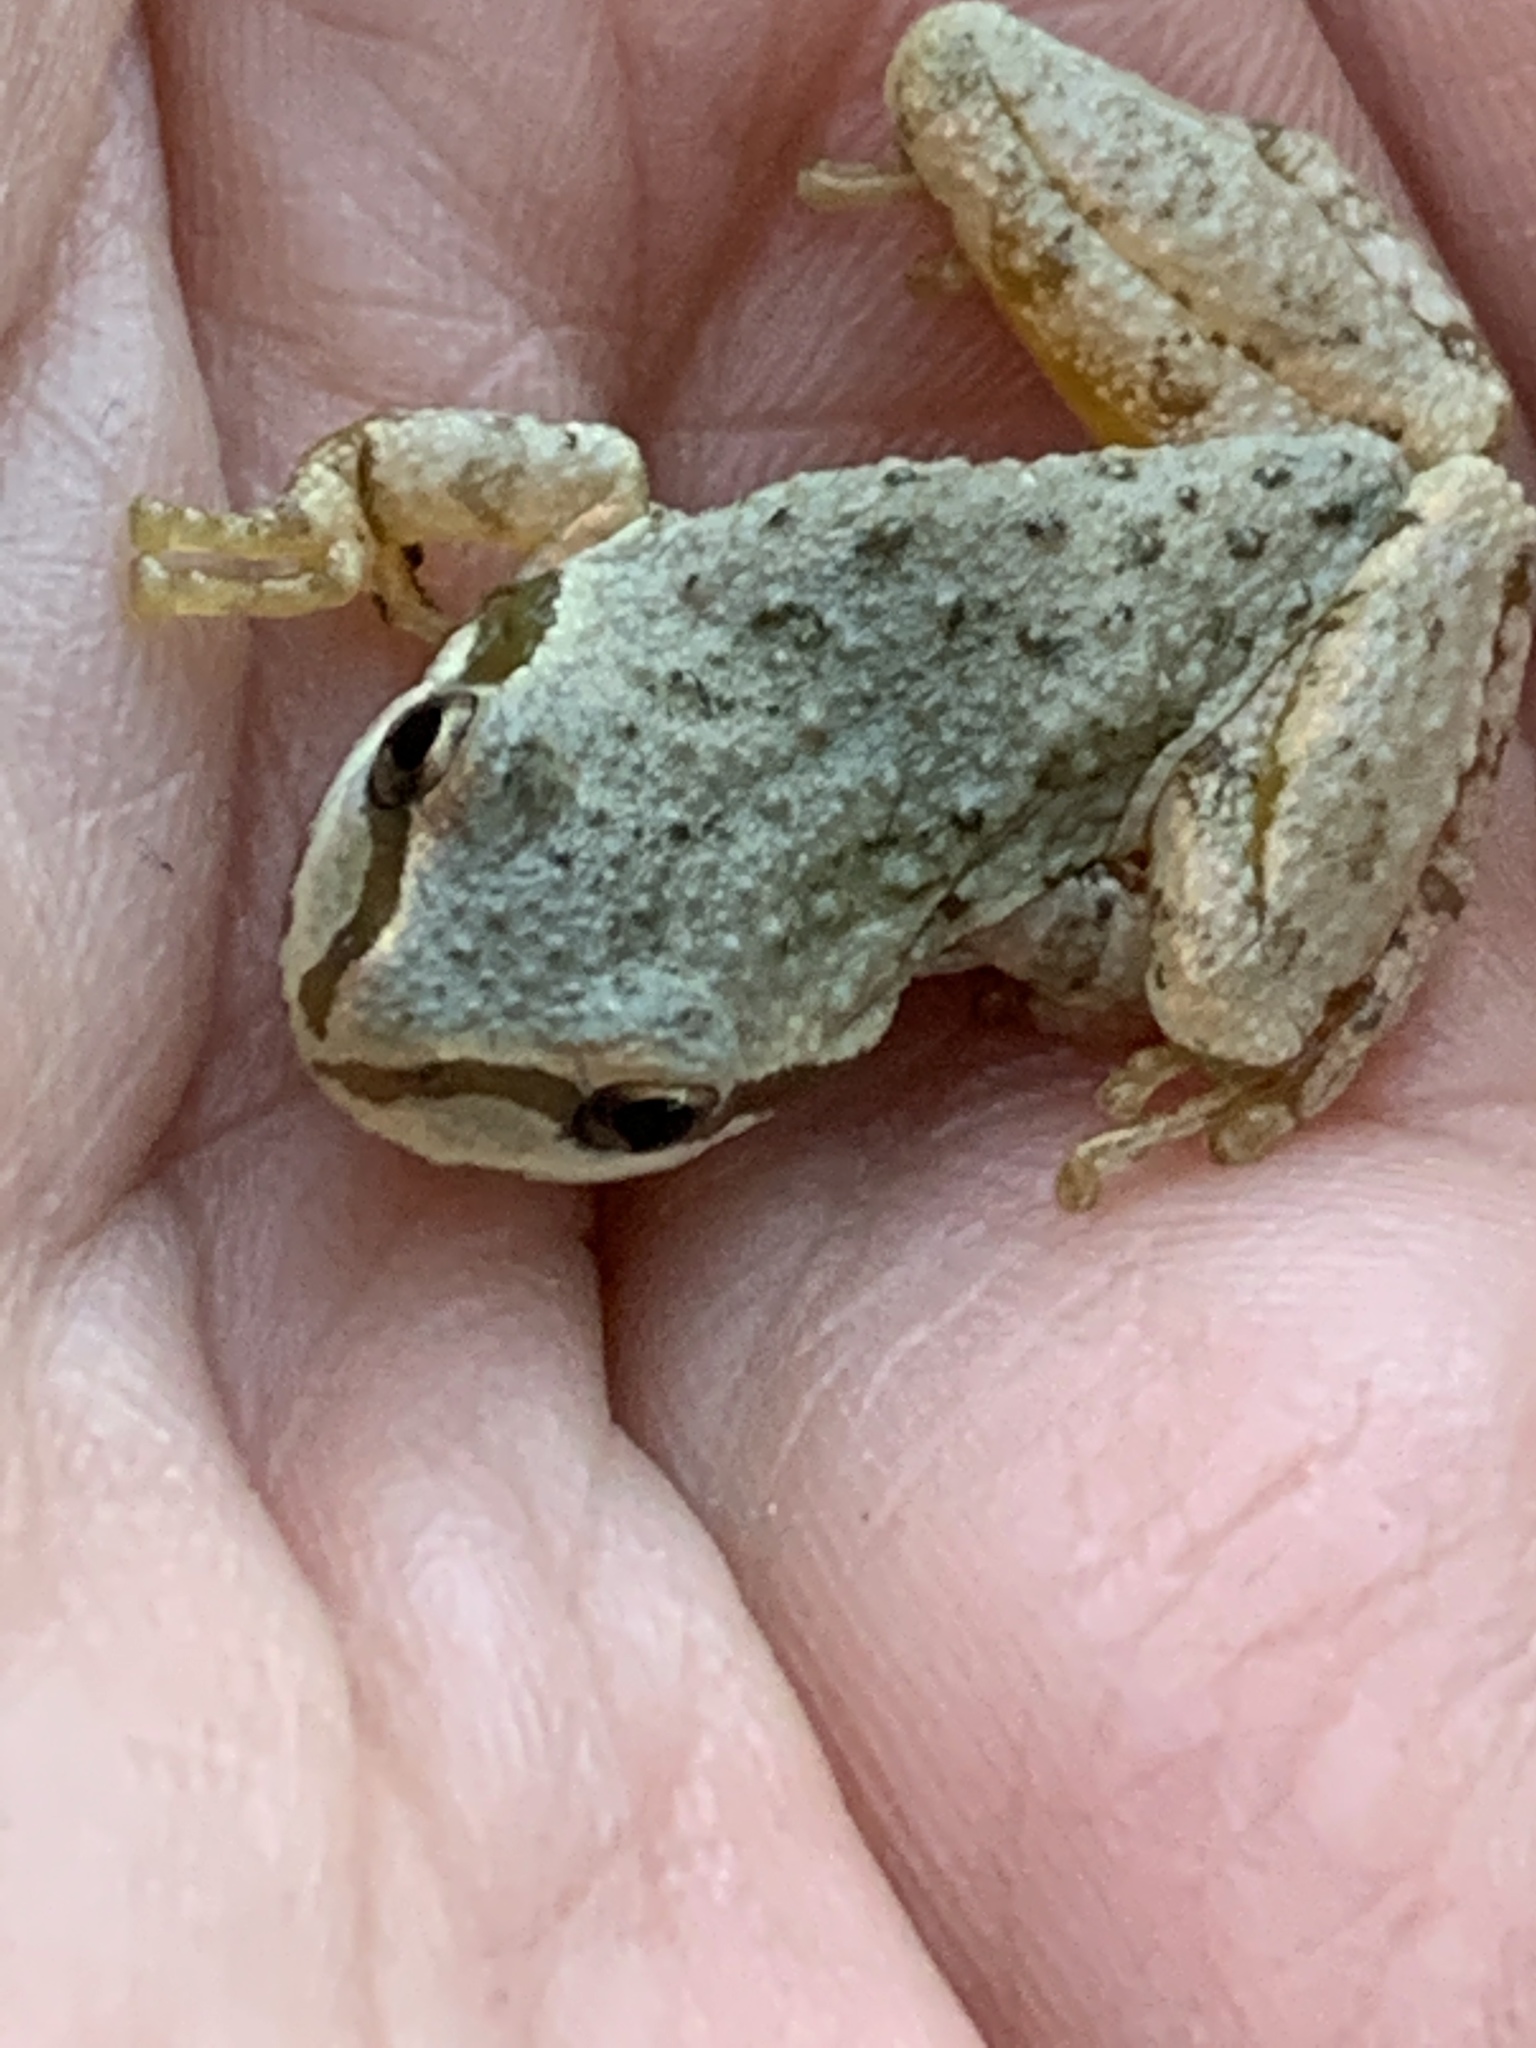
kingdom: Animalia
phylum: Chordata
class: Amphibia
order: Anura
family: Hylidae
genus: Pseudacris
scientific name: Pseudacris regilla
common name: Pacific chorus frog
